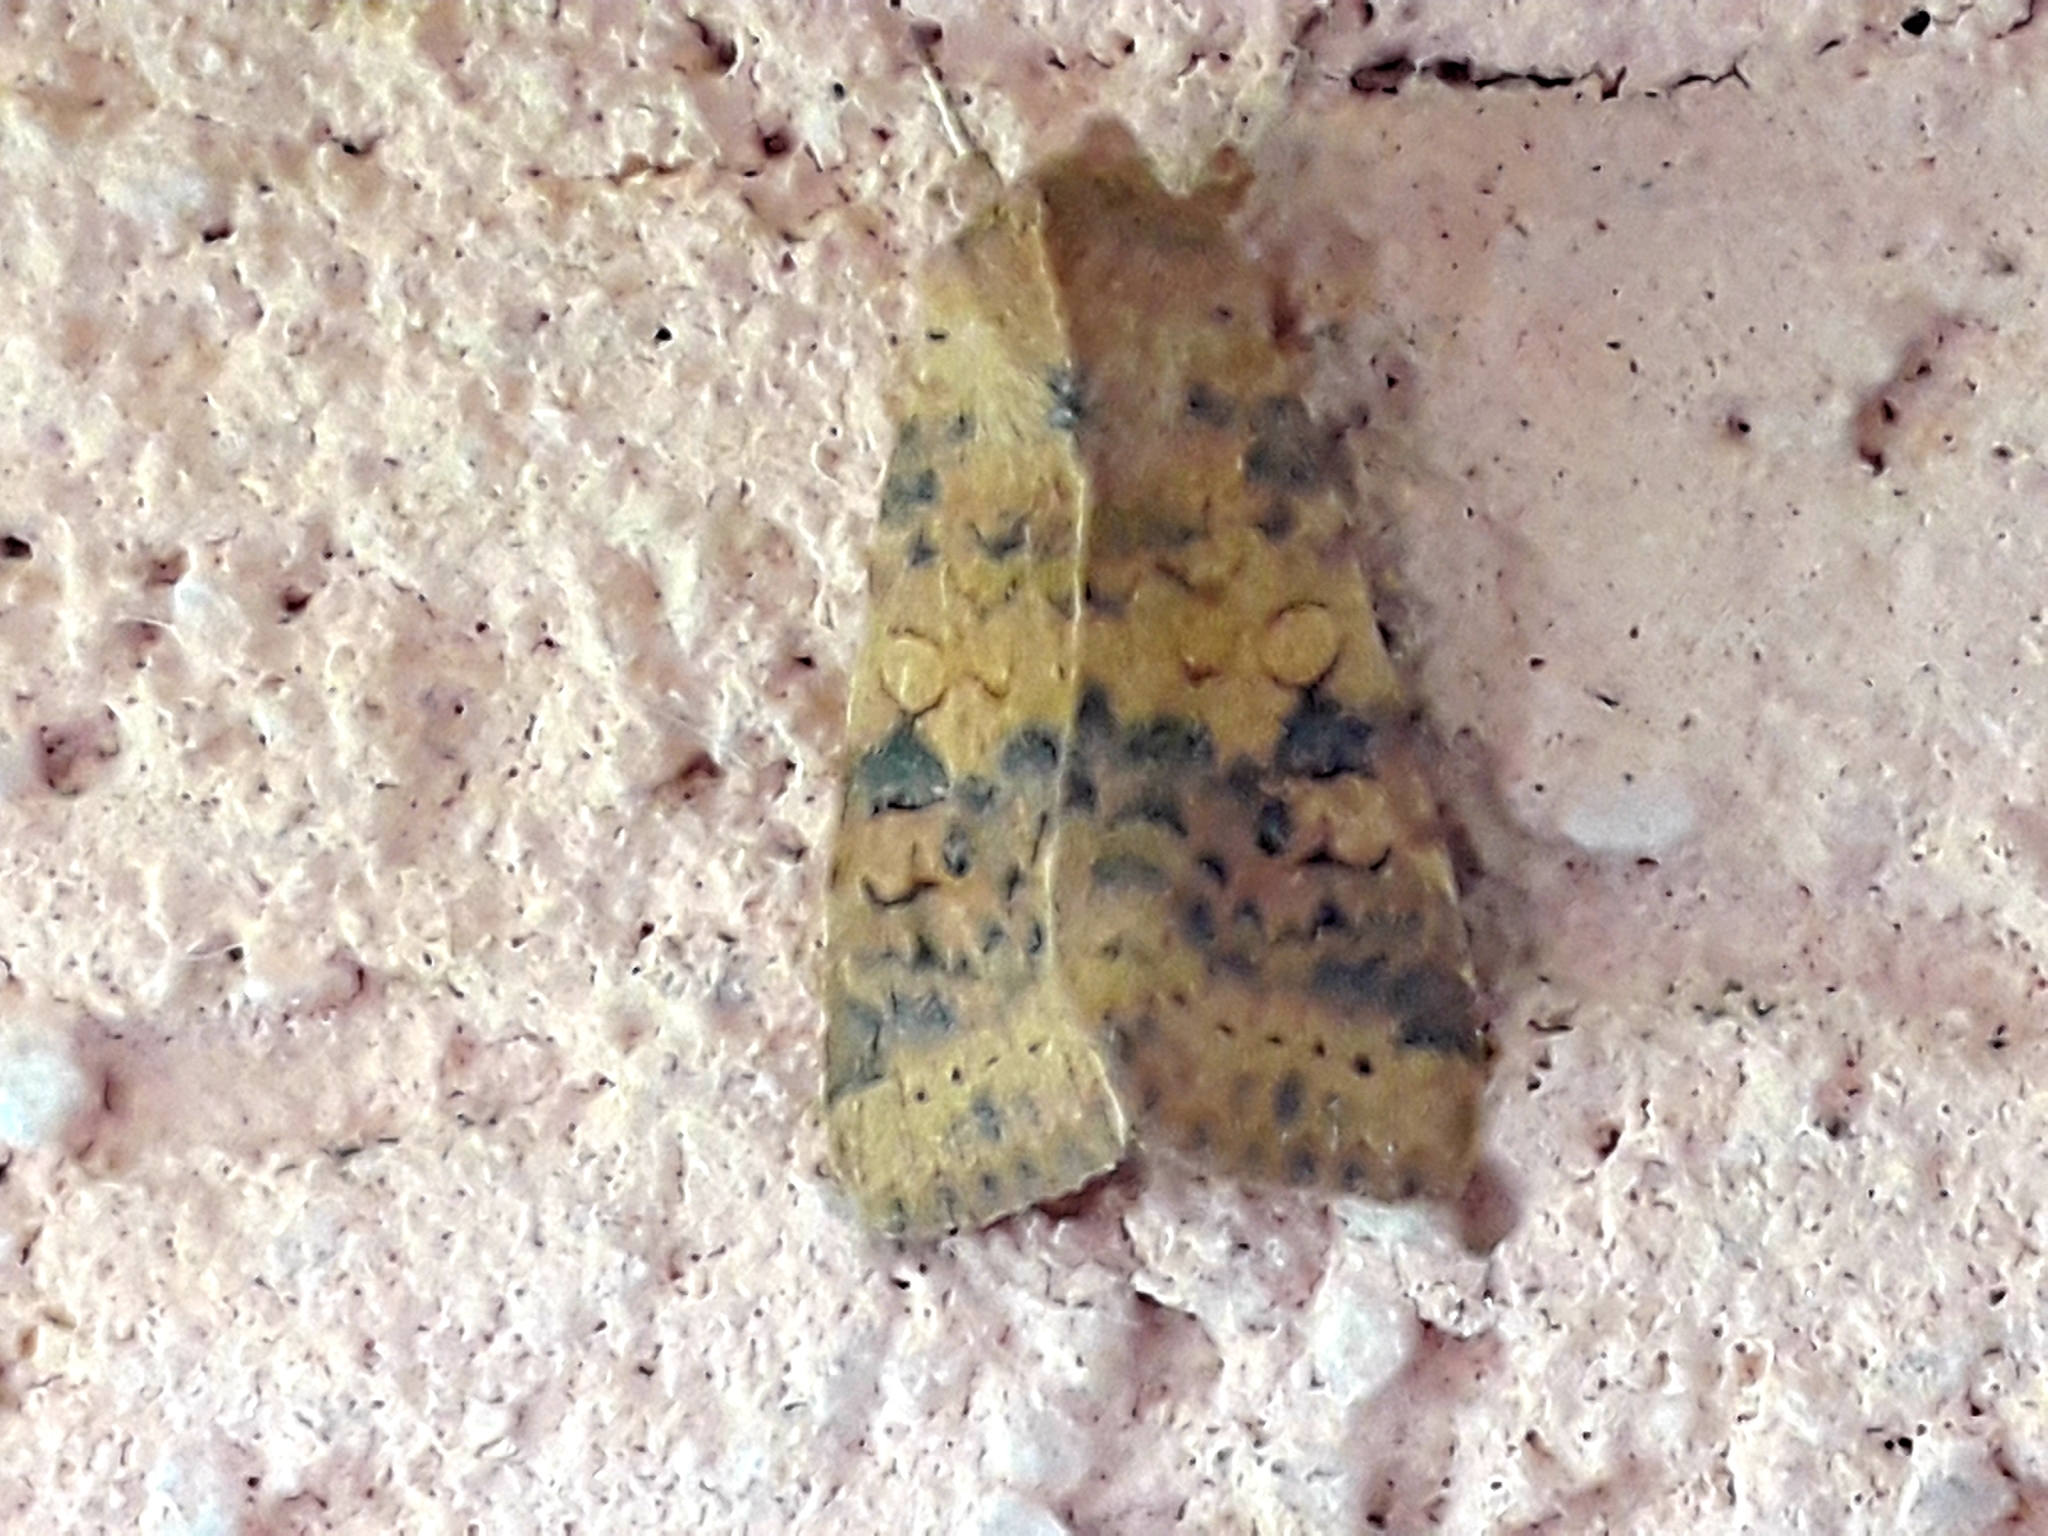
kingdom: Animalia
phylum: Arthropoda
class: Insecta
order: Lepidoptera
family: Noctuidae
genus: Xanthia
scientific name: Xanthia gilvago
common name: Dusky-lemon sallow
